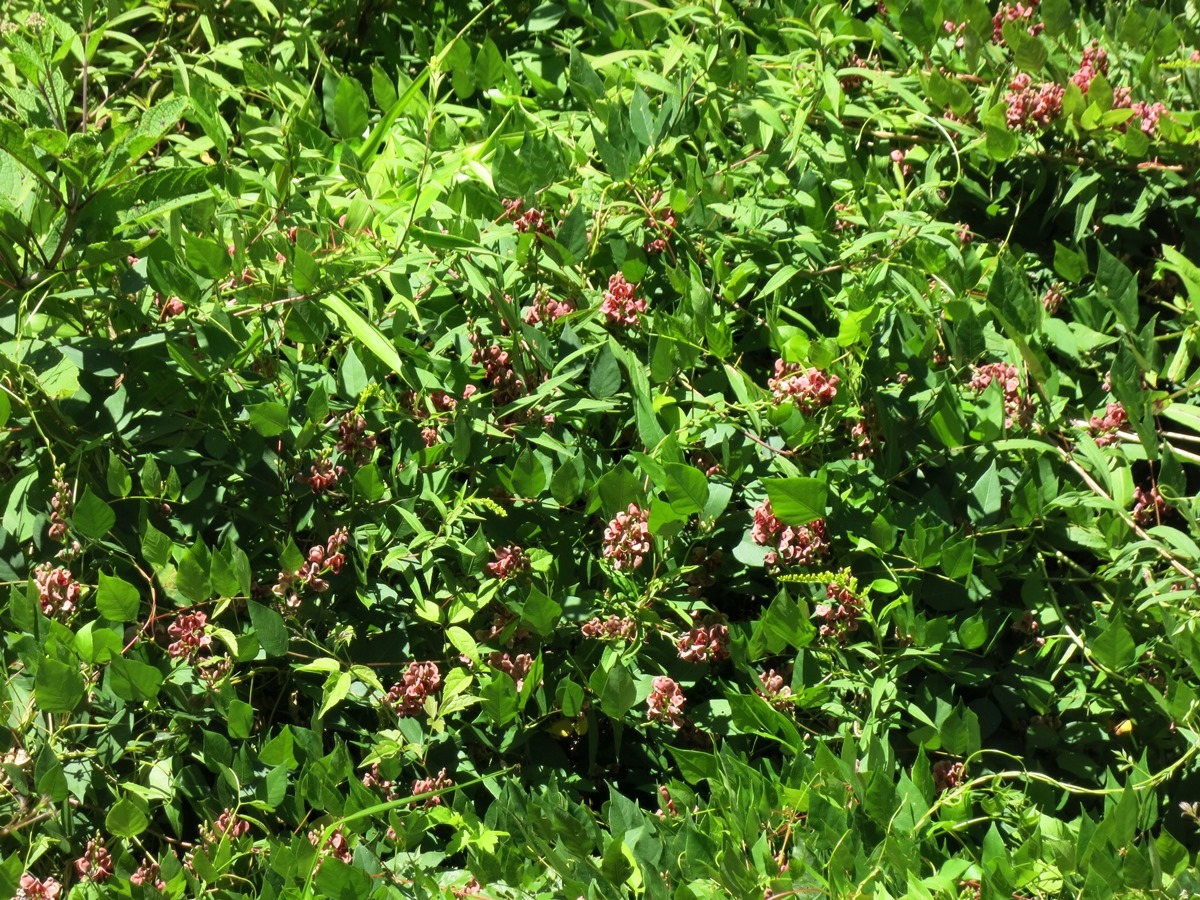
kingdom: Plantae
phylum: Tracheophyta
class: Magnoliopsida
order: Fabales
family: Fabaceae
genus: Apios
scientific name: Apios americana
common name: American potato-bean
